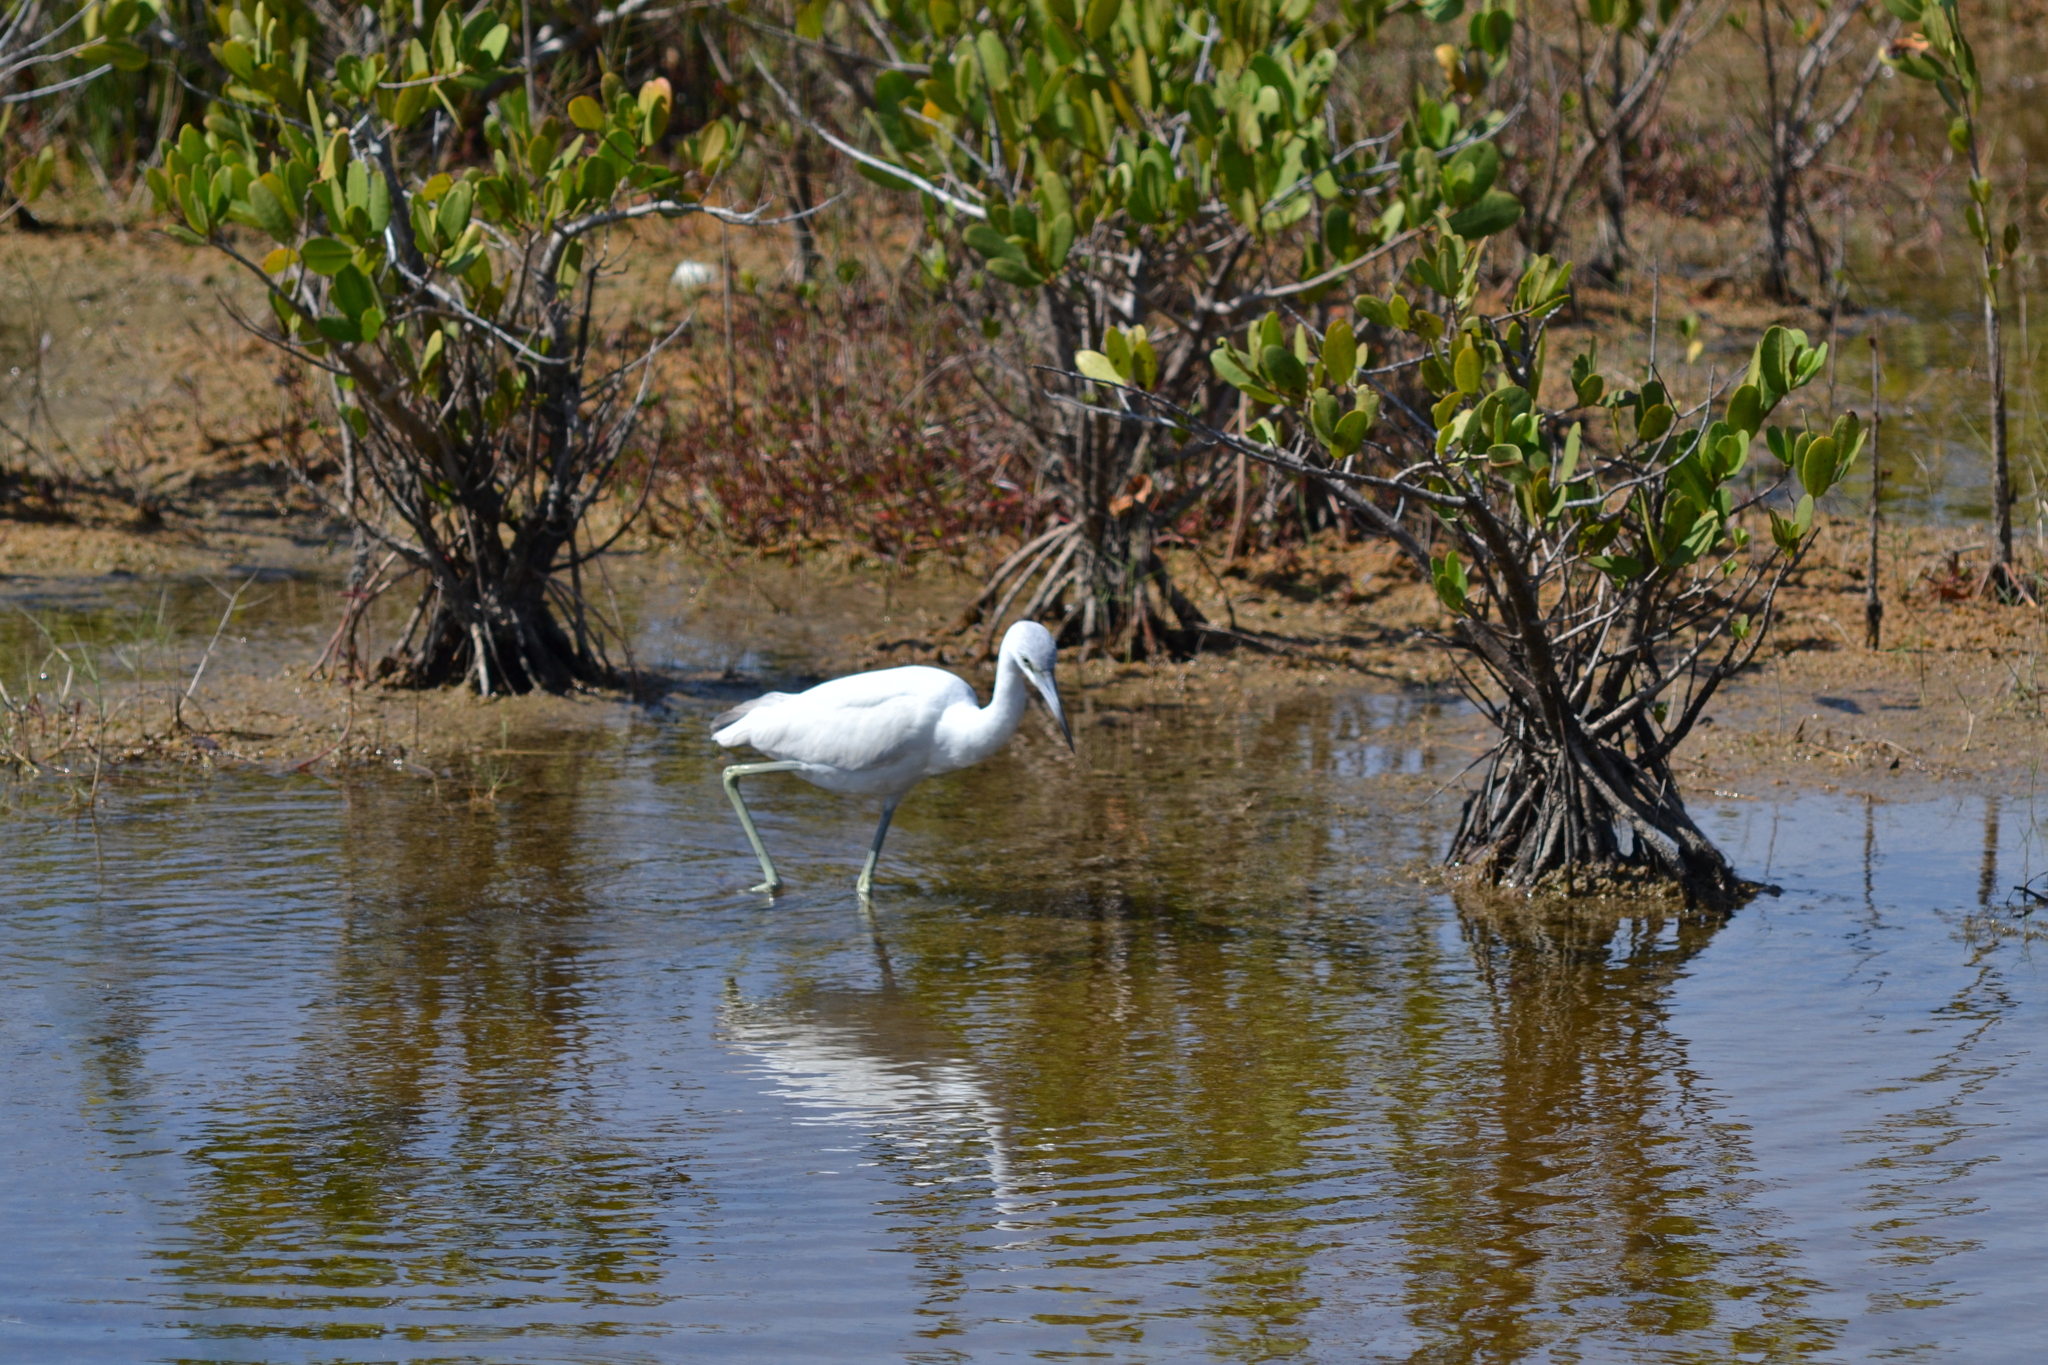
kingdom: Animalia
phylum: Chordata
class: Aves
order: Pelecaniformes
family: Ardeidae
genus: Egretta
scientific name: Egretta caerulea
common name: Little blue heron
